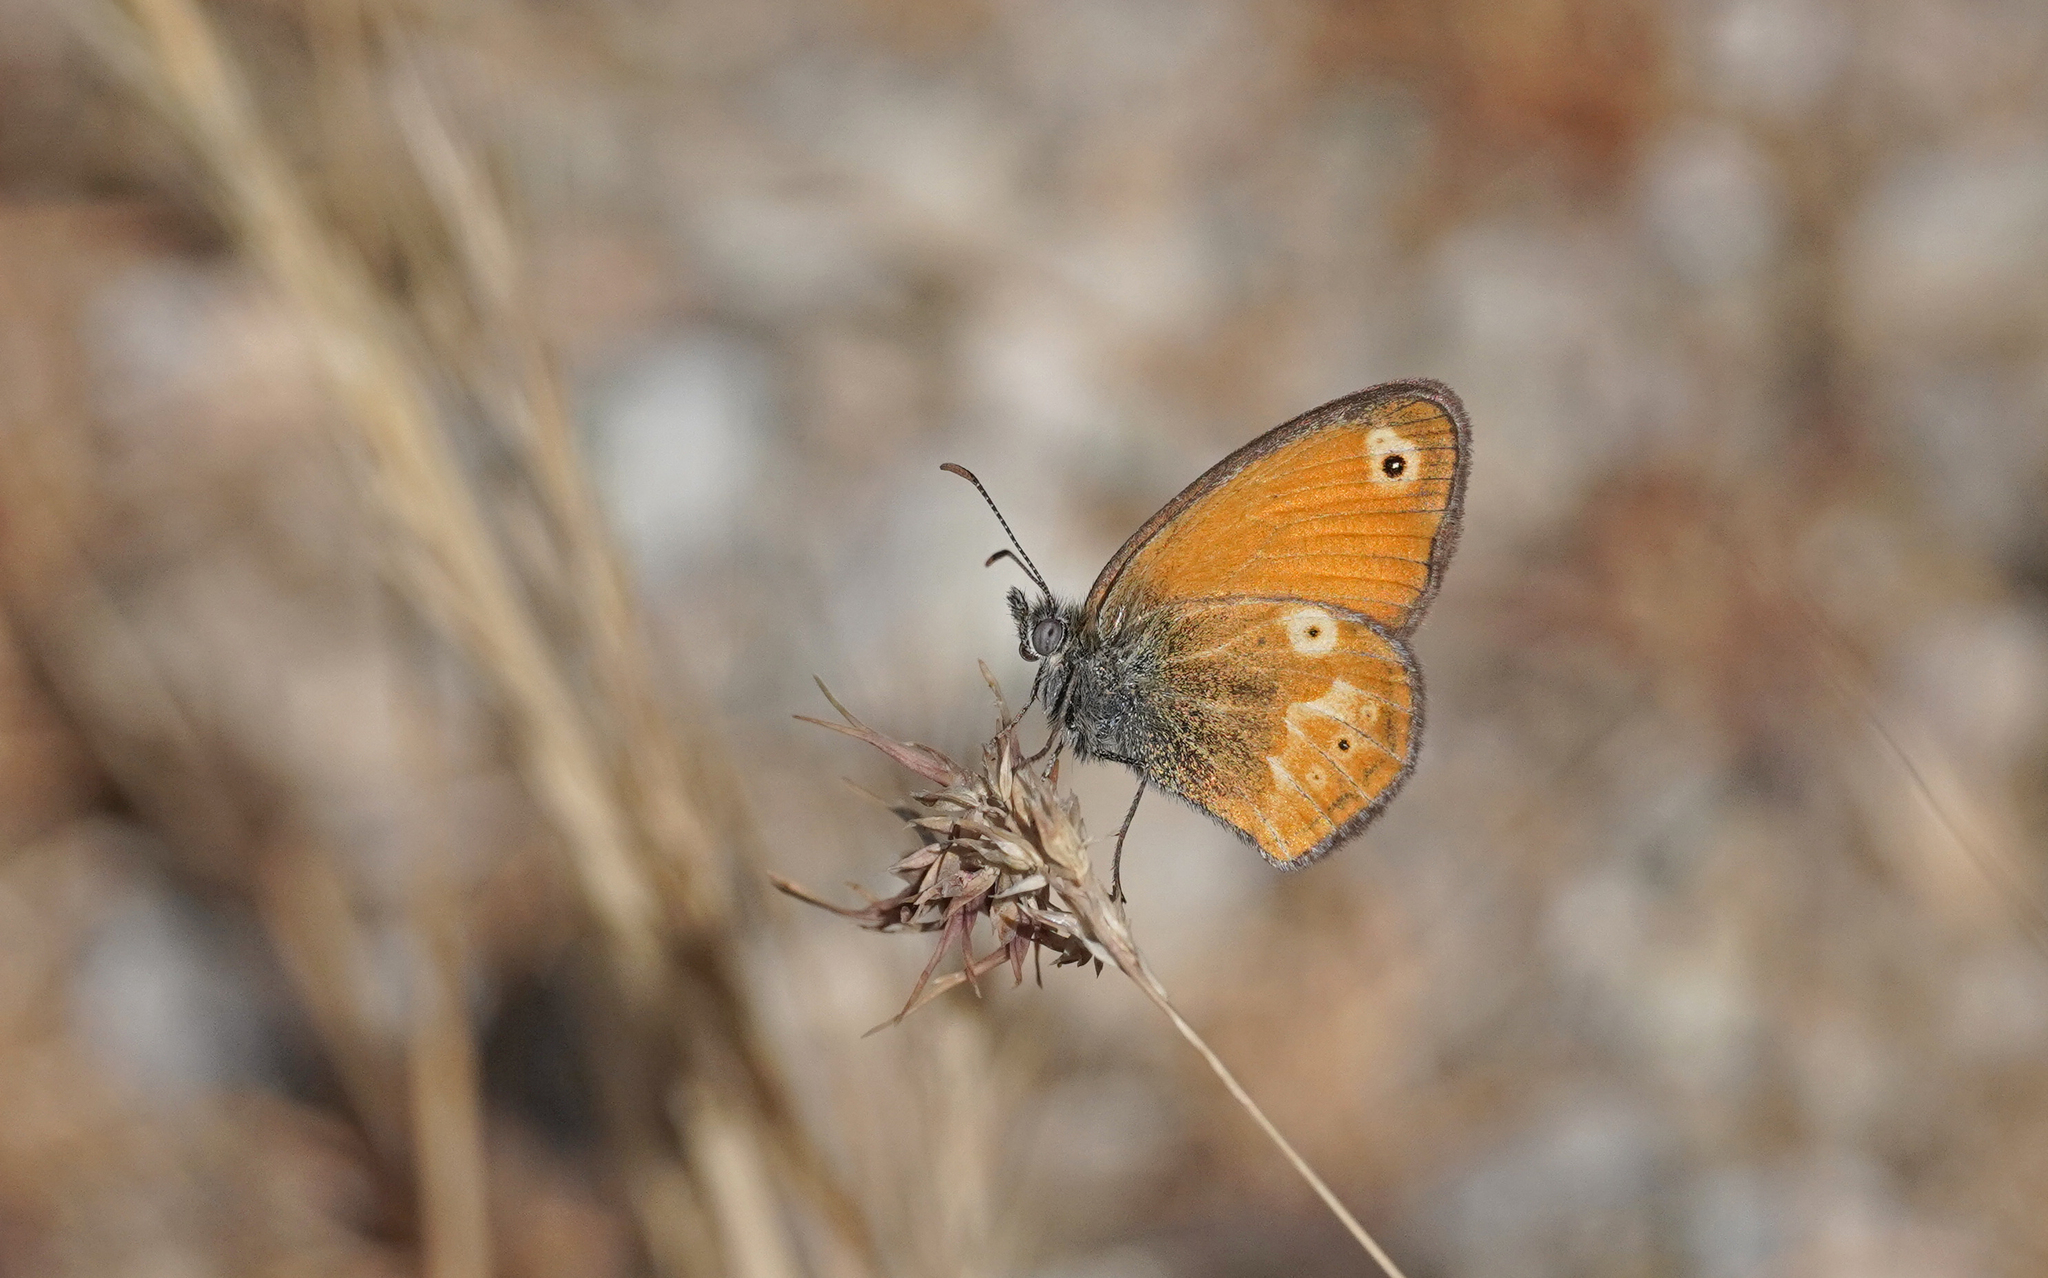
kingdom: Animalia
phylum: Arthropoda
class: Insecta
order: Lepidoptera
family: Nymphalidae
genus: Coenonympha
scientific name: Coenonympha corinna
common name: Corsican heath
